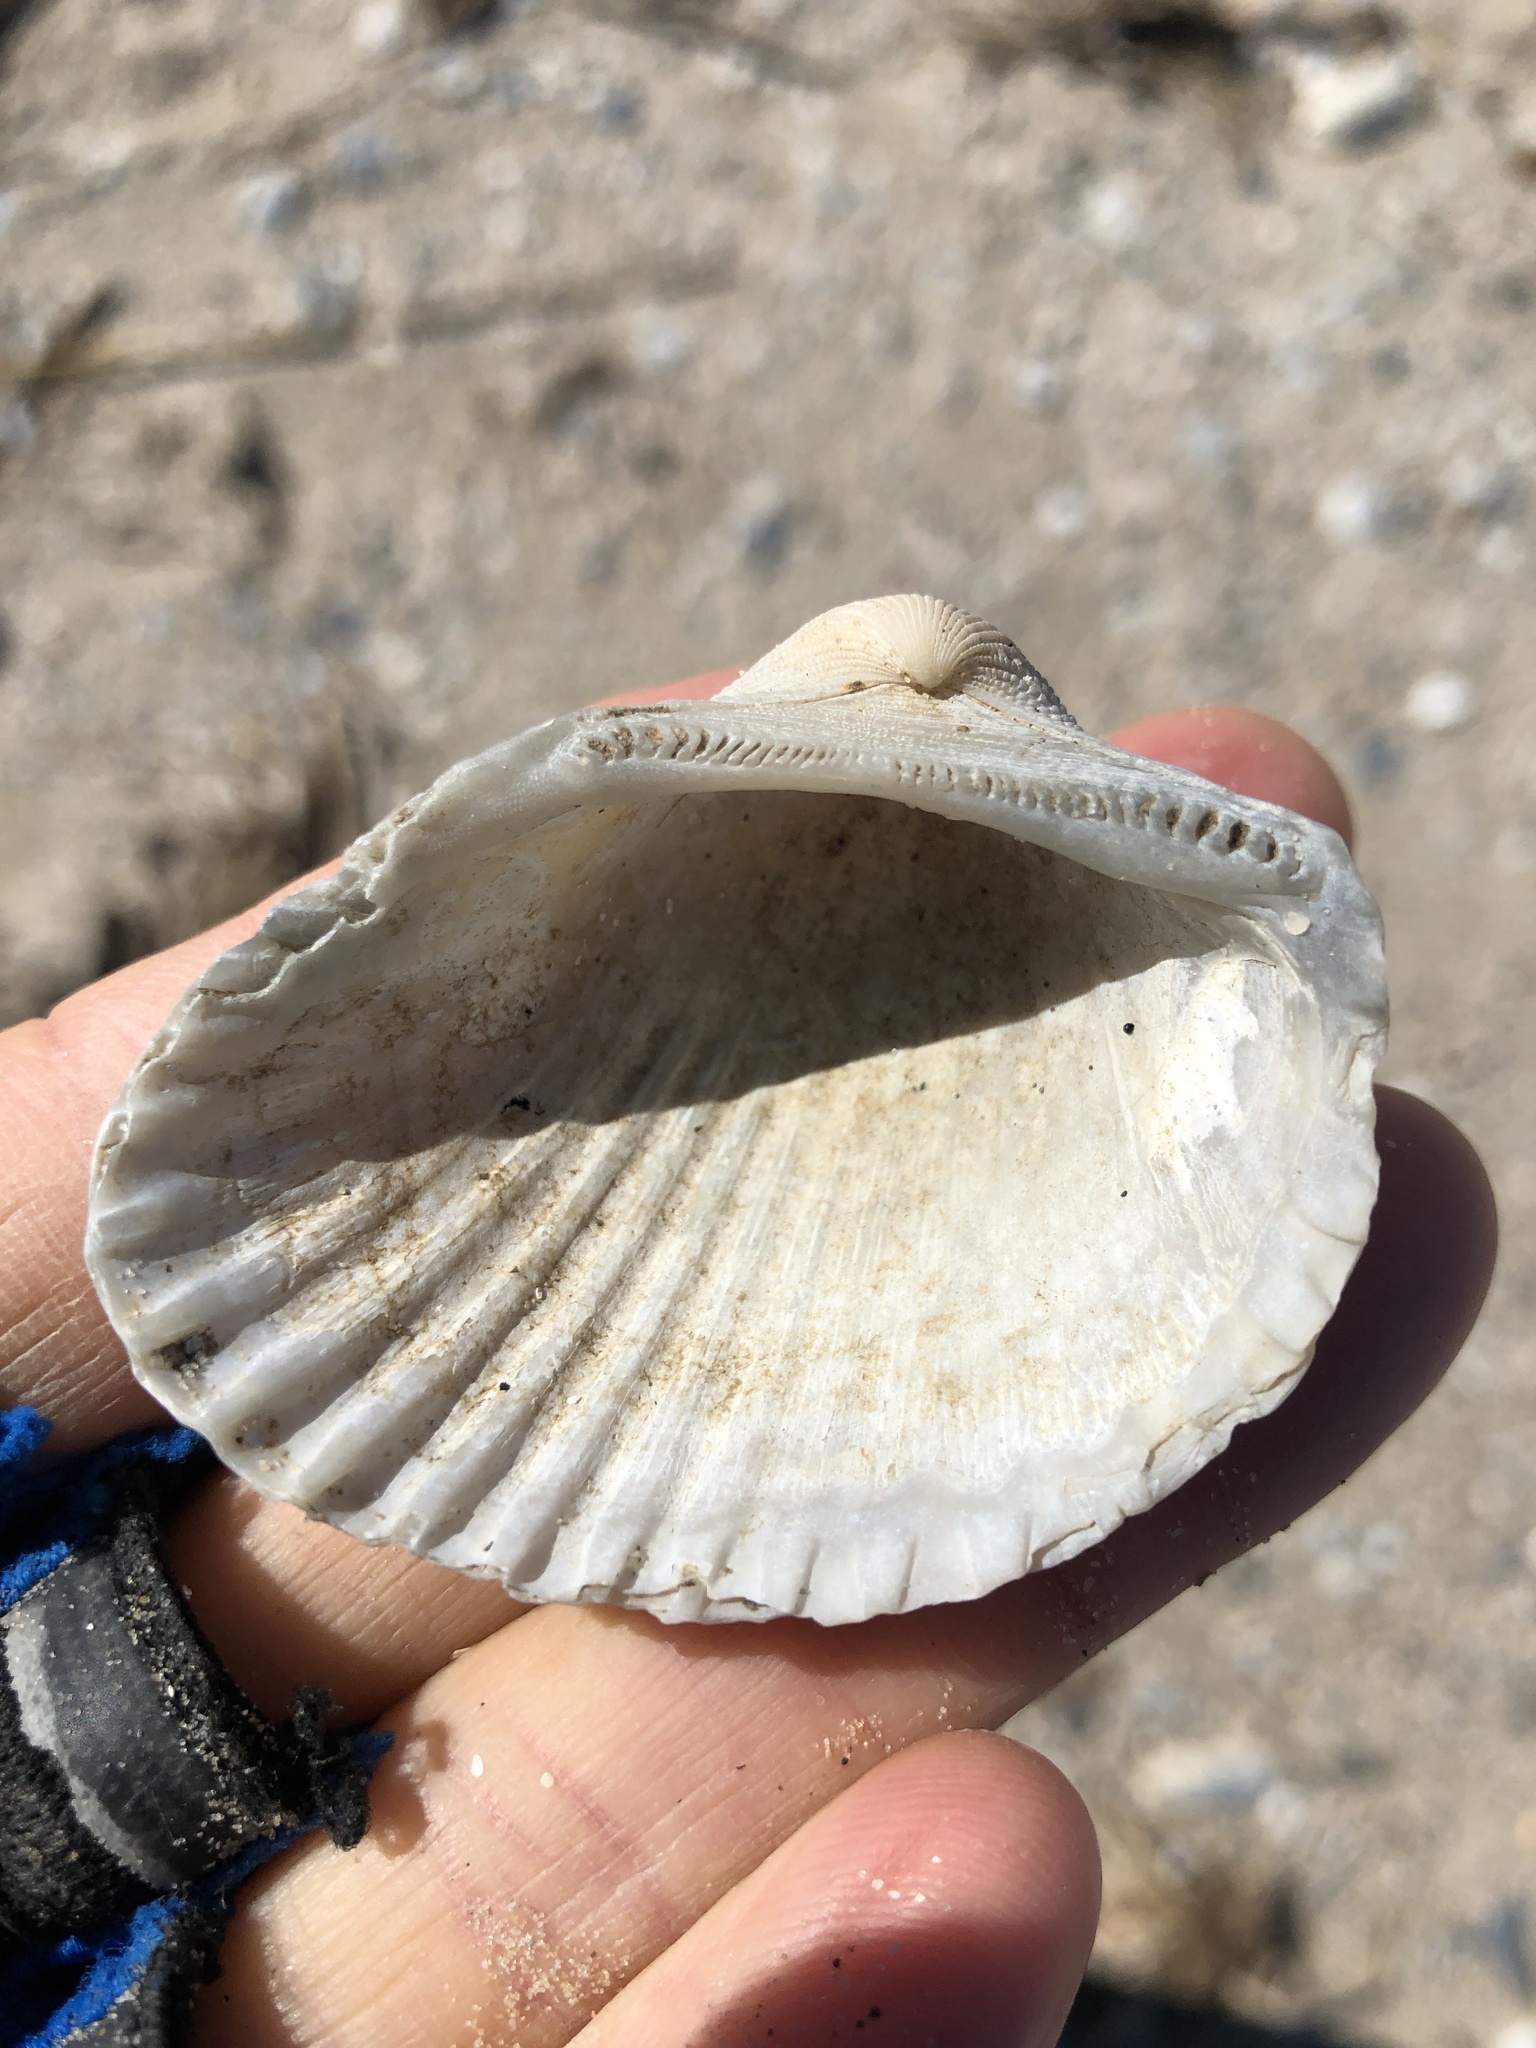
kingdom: Animalia
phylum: Mollusca
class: Bivalvia
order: Arcida
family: Arcidae
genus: Anadara
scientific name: Anadara brasiliana
